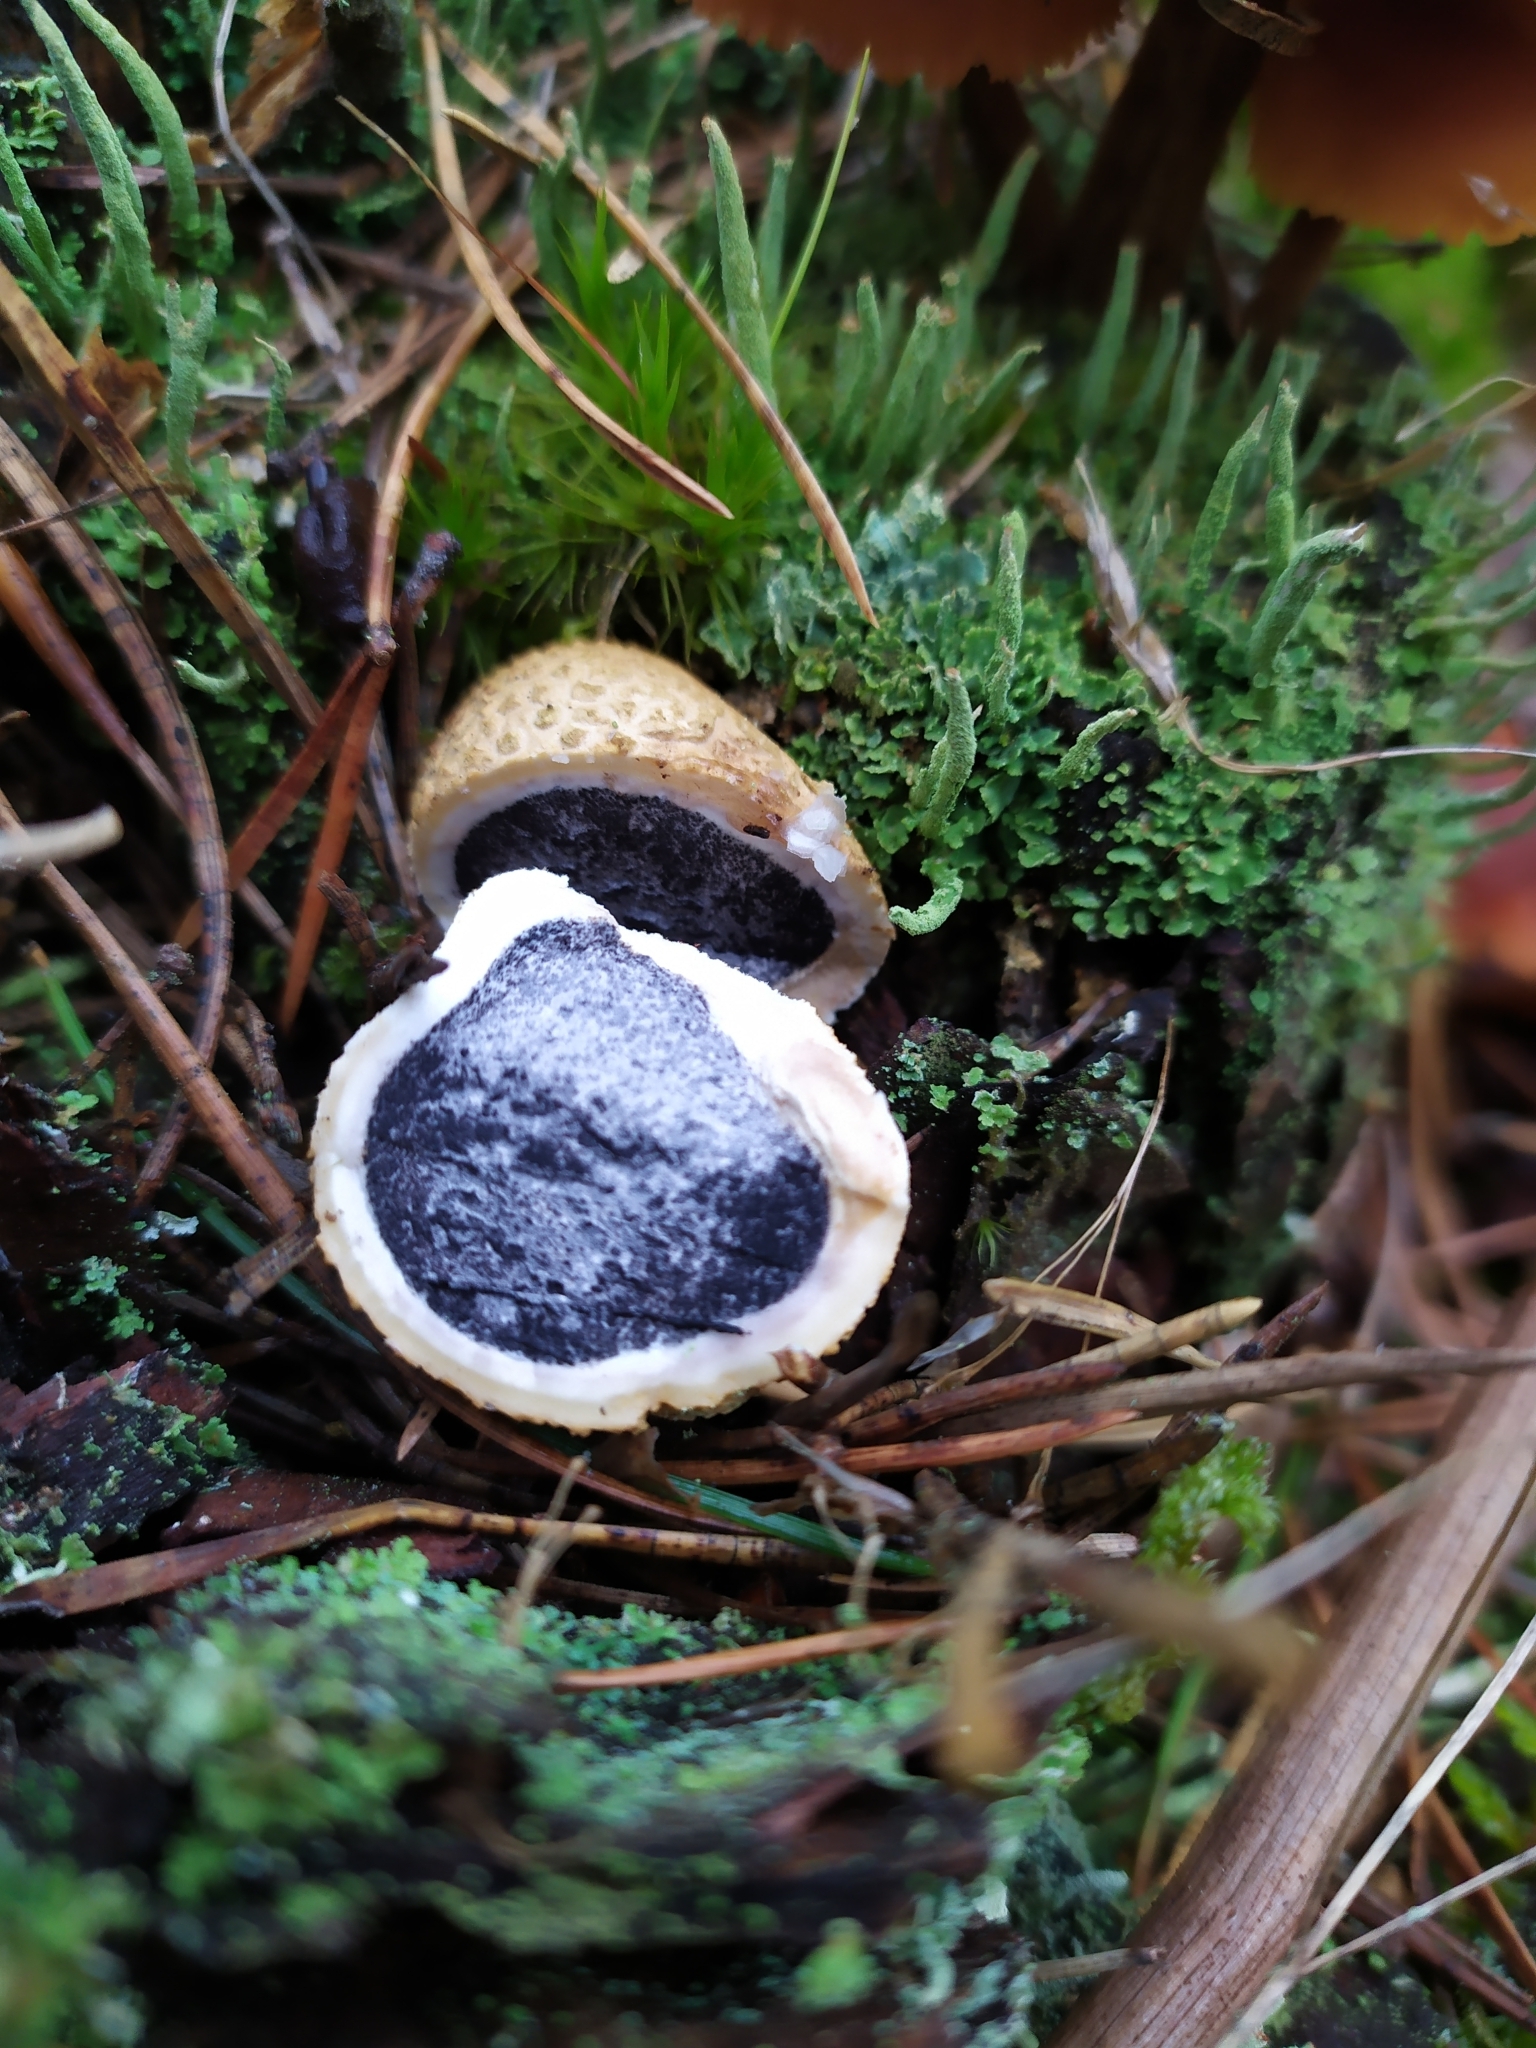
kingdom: Fungi
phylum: Basidiomycota
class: Agaricomycetes
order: Boletales
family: Sclerodermataceae
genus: Scleroderma
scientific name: Scleroderma citrinum
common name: Common earthball
